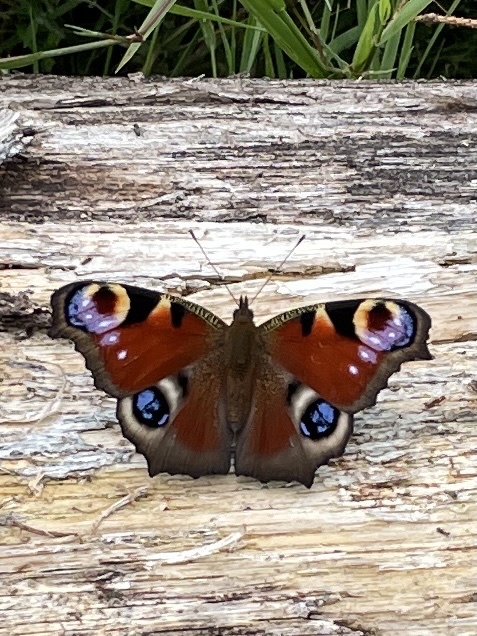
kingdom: Animalia
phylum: Arthropoda
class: Insecta
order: Lepidoptera
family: Nymphalidae
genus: Aglais
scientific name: Aglais io
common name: Peacock
